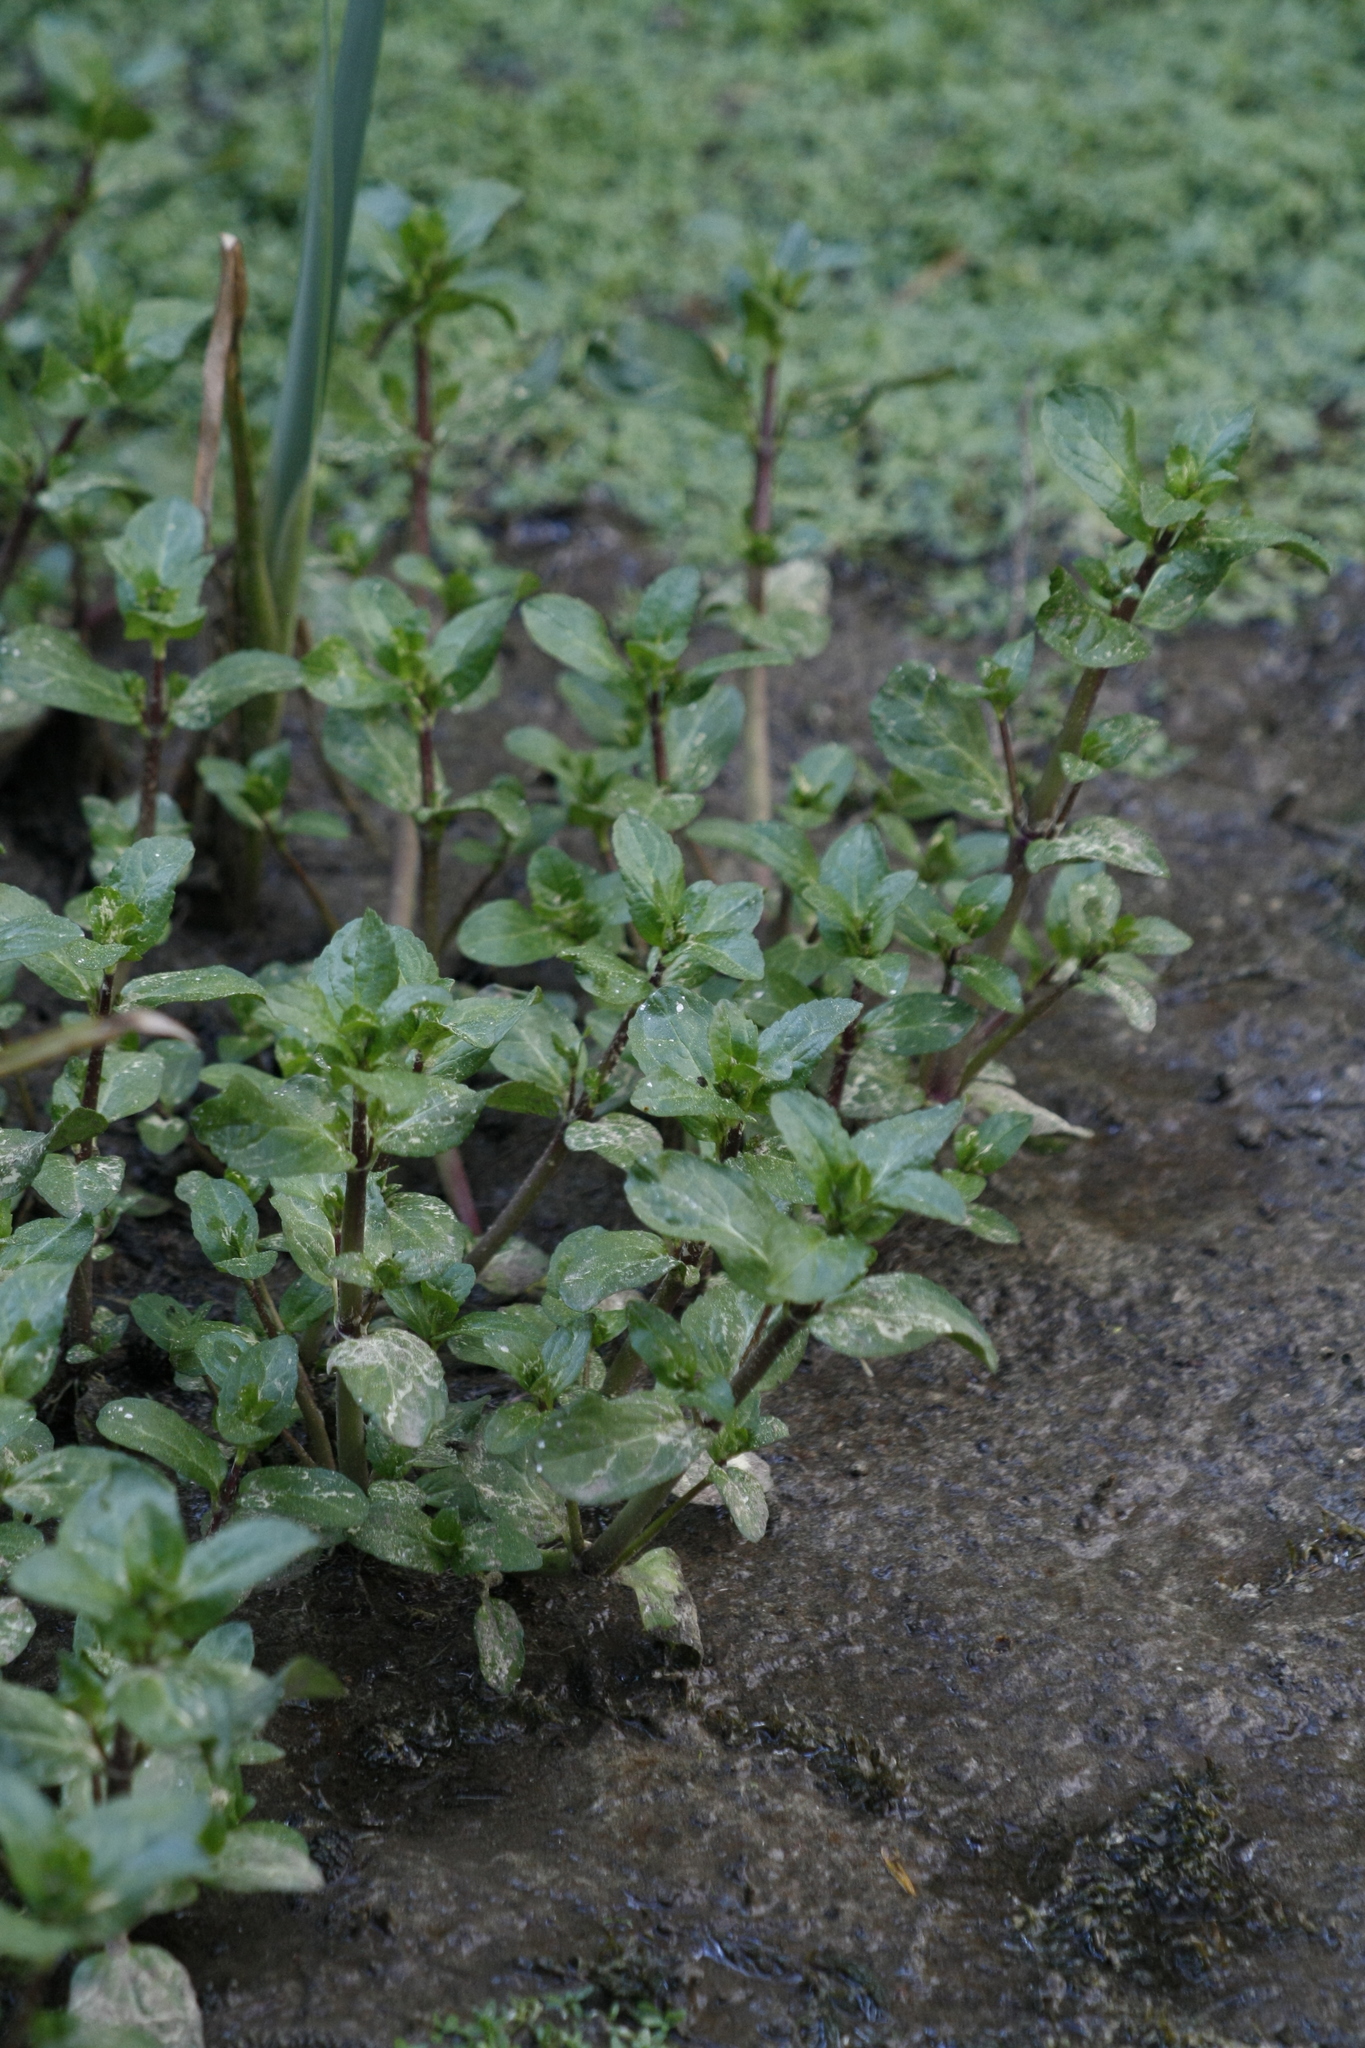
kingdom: Plantae
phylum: Tracheophyta
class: Magnoliopsida
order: Lamiales
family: Plantaginaceae
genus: Veronica
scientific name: Veronica beccabunga
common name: Brooklime
